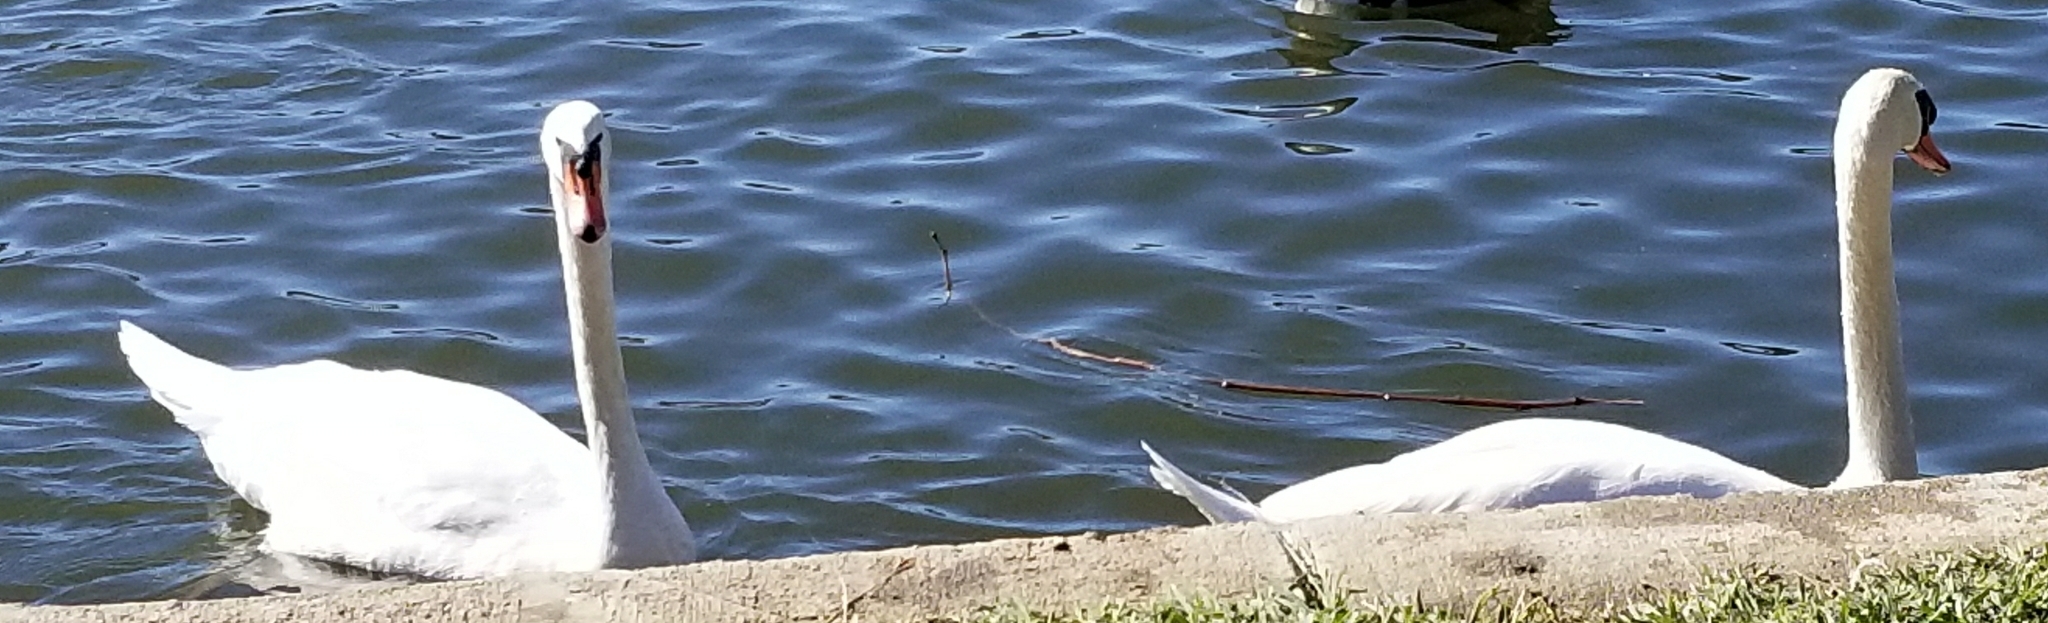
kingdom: Animalia
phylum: Chordata
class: Aves
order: Anseriformes
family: Anatidae
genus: Cygnus
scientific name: Cygnus olor
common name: Mute swan
